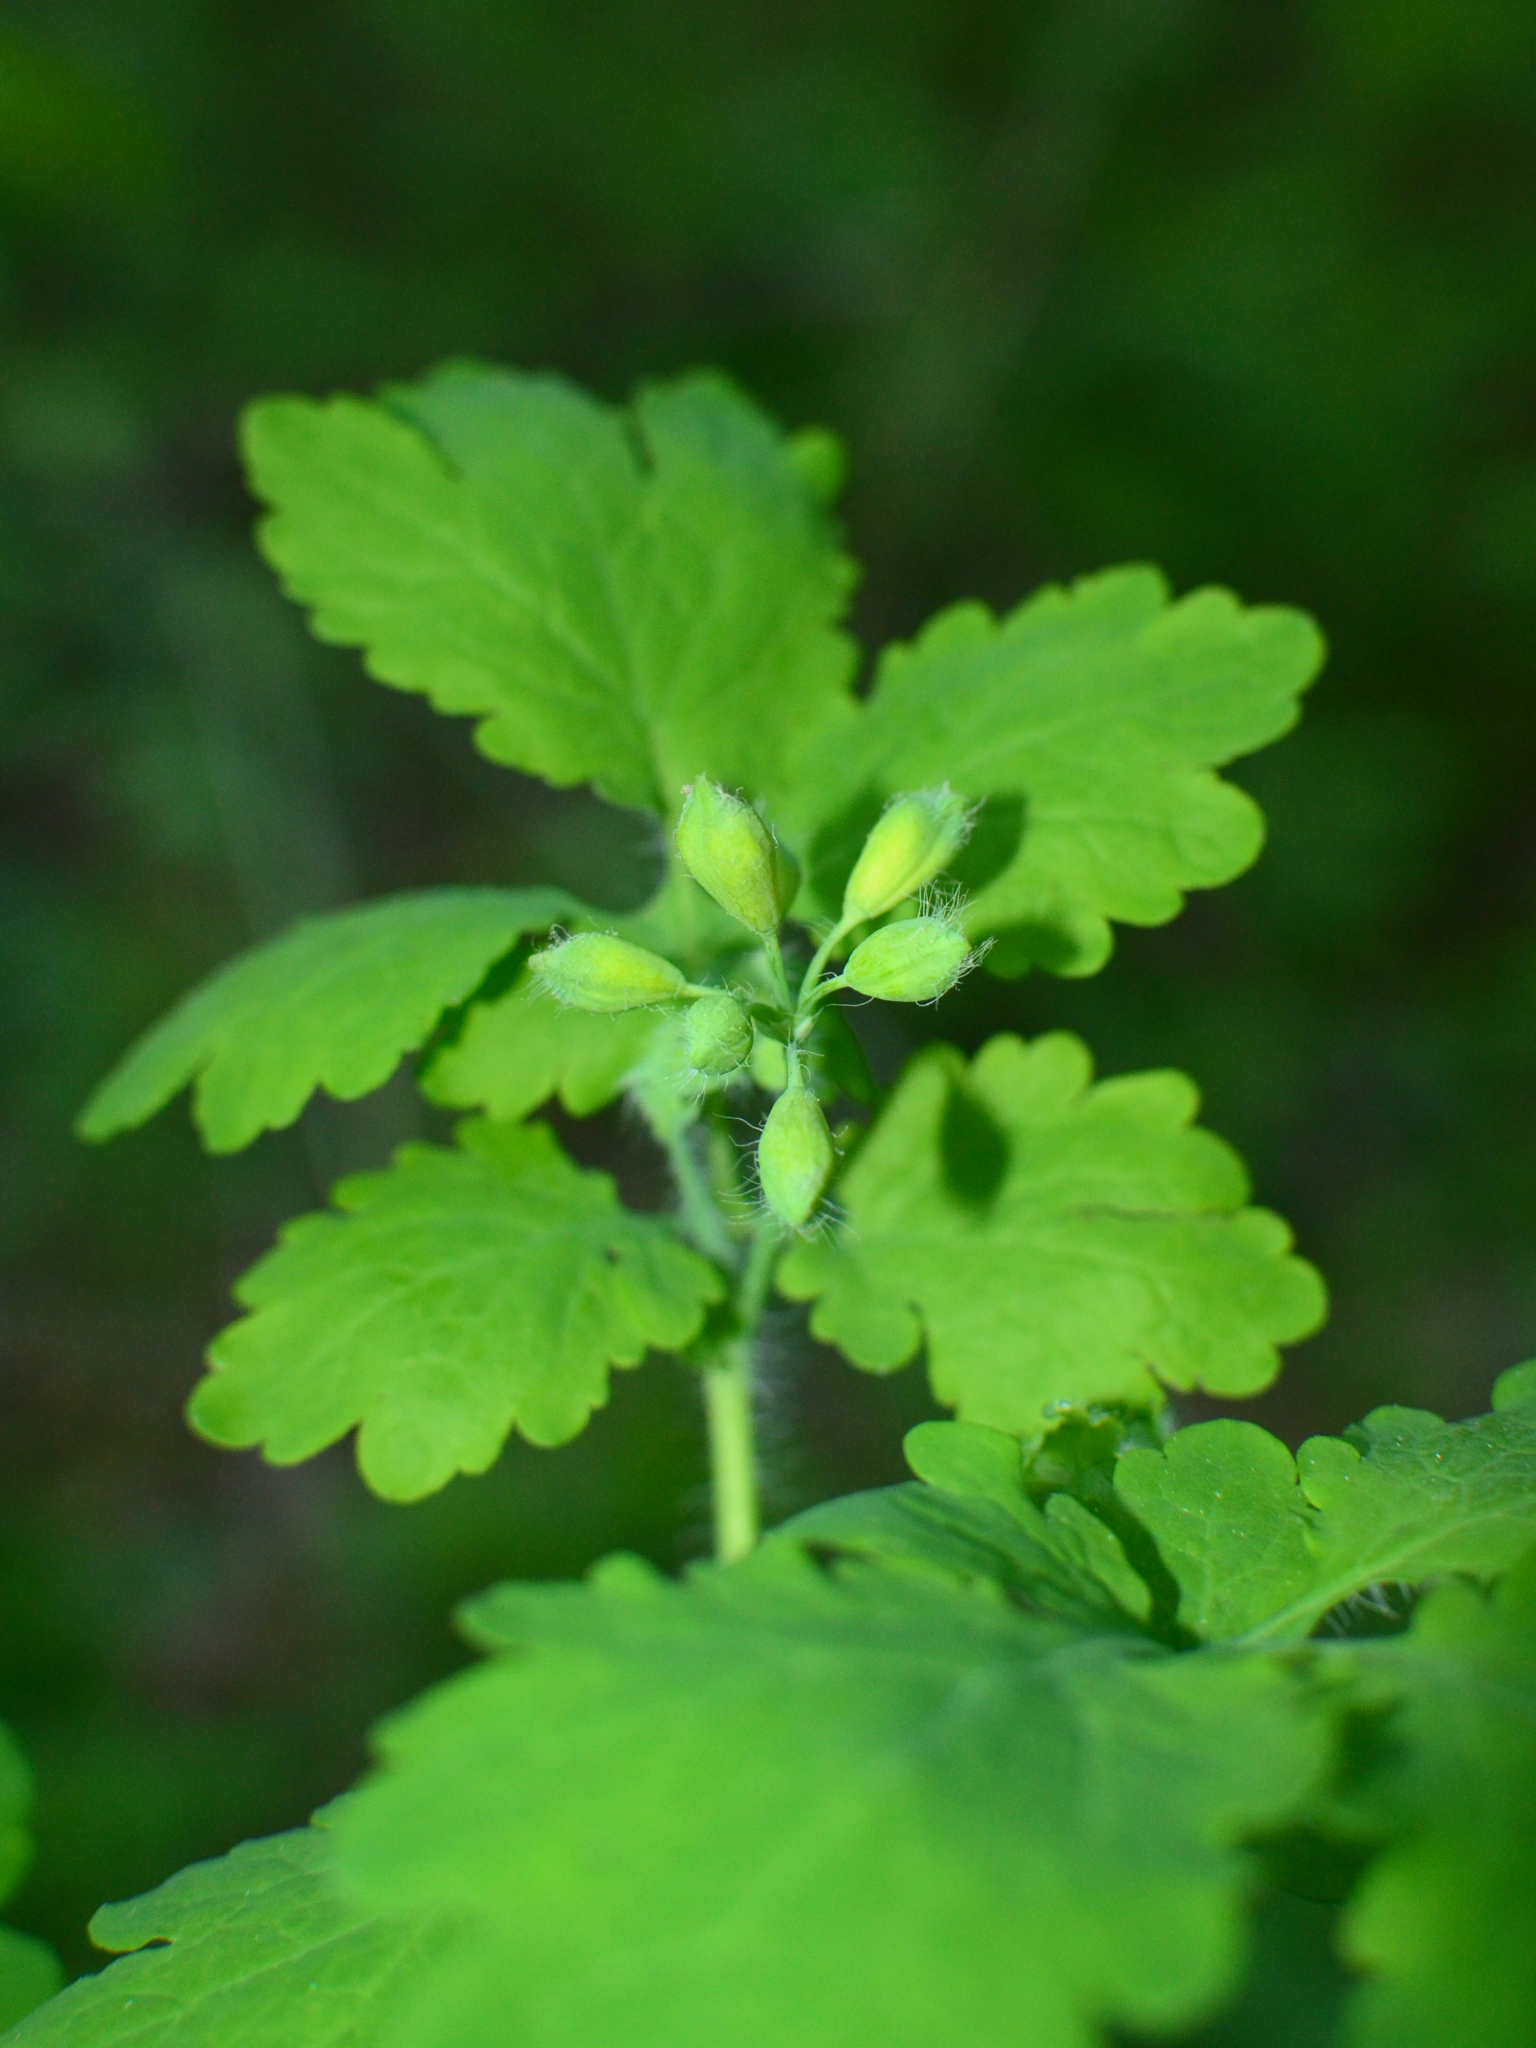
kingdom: Plantae
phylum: Tracheophyta
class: Magnoliopsida
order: Ranunculales
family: Papaveraceae
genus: Chelidonium
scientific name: Chelidonium majus
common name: Greater celandine
